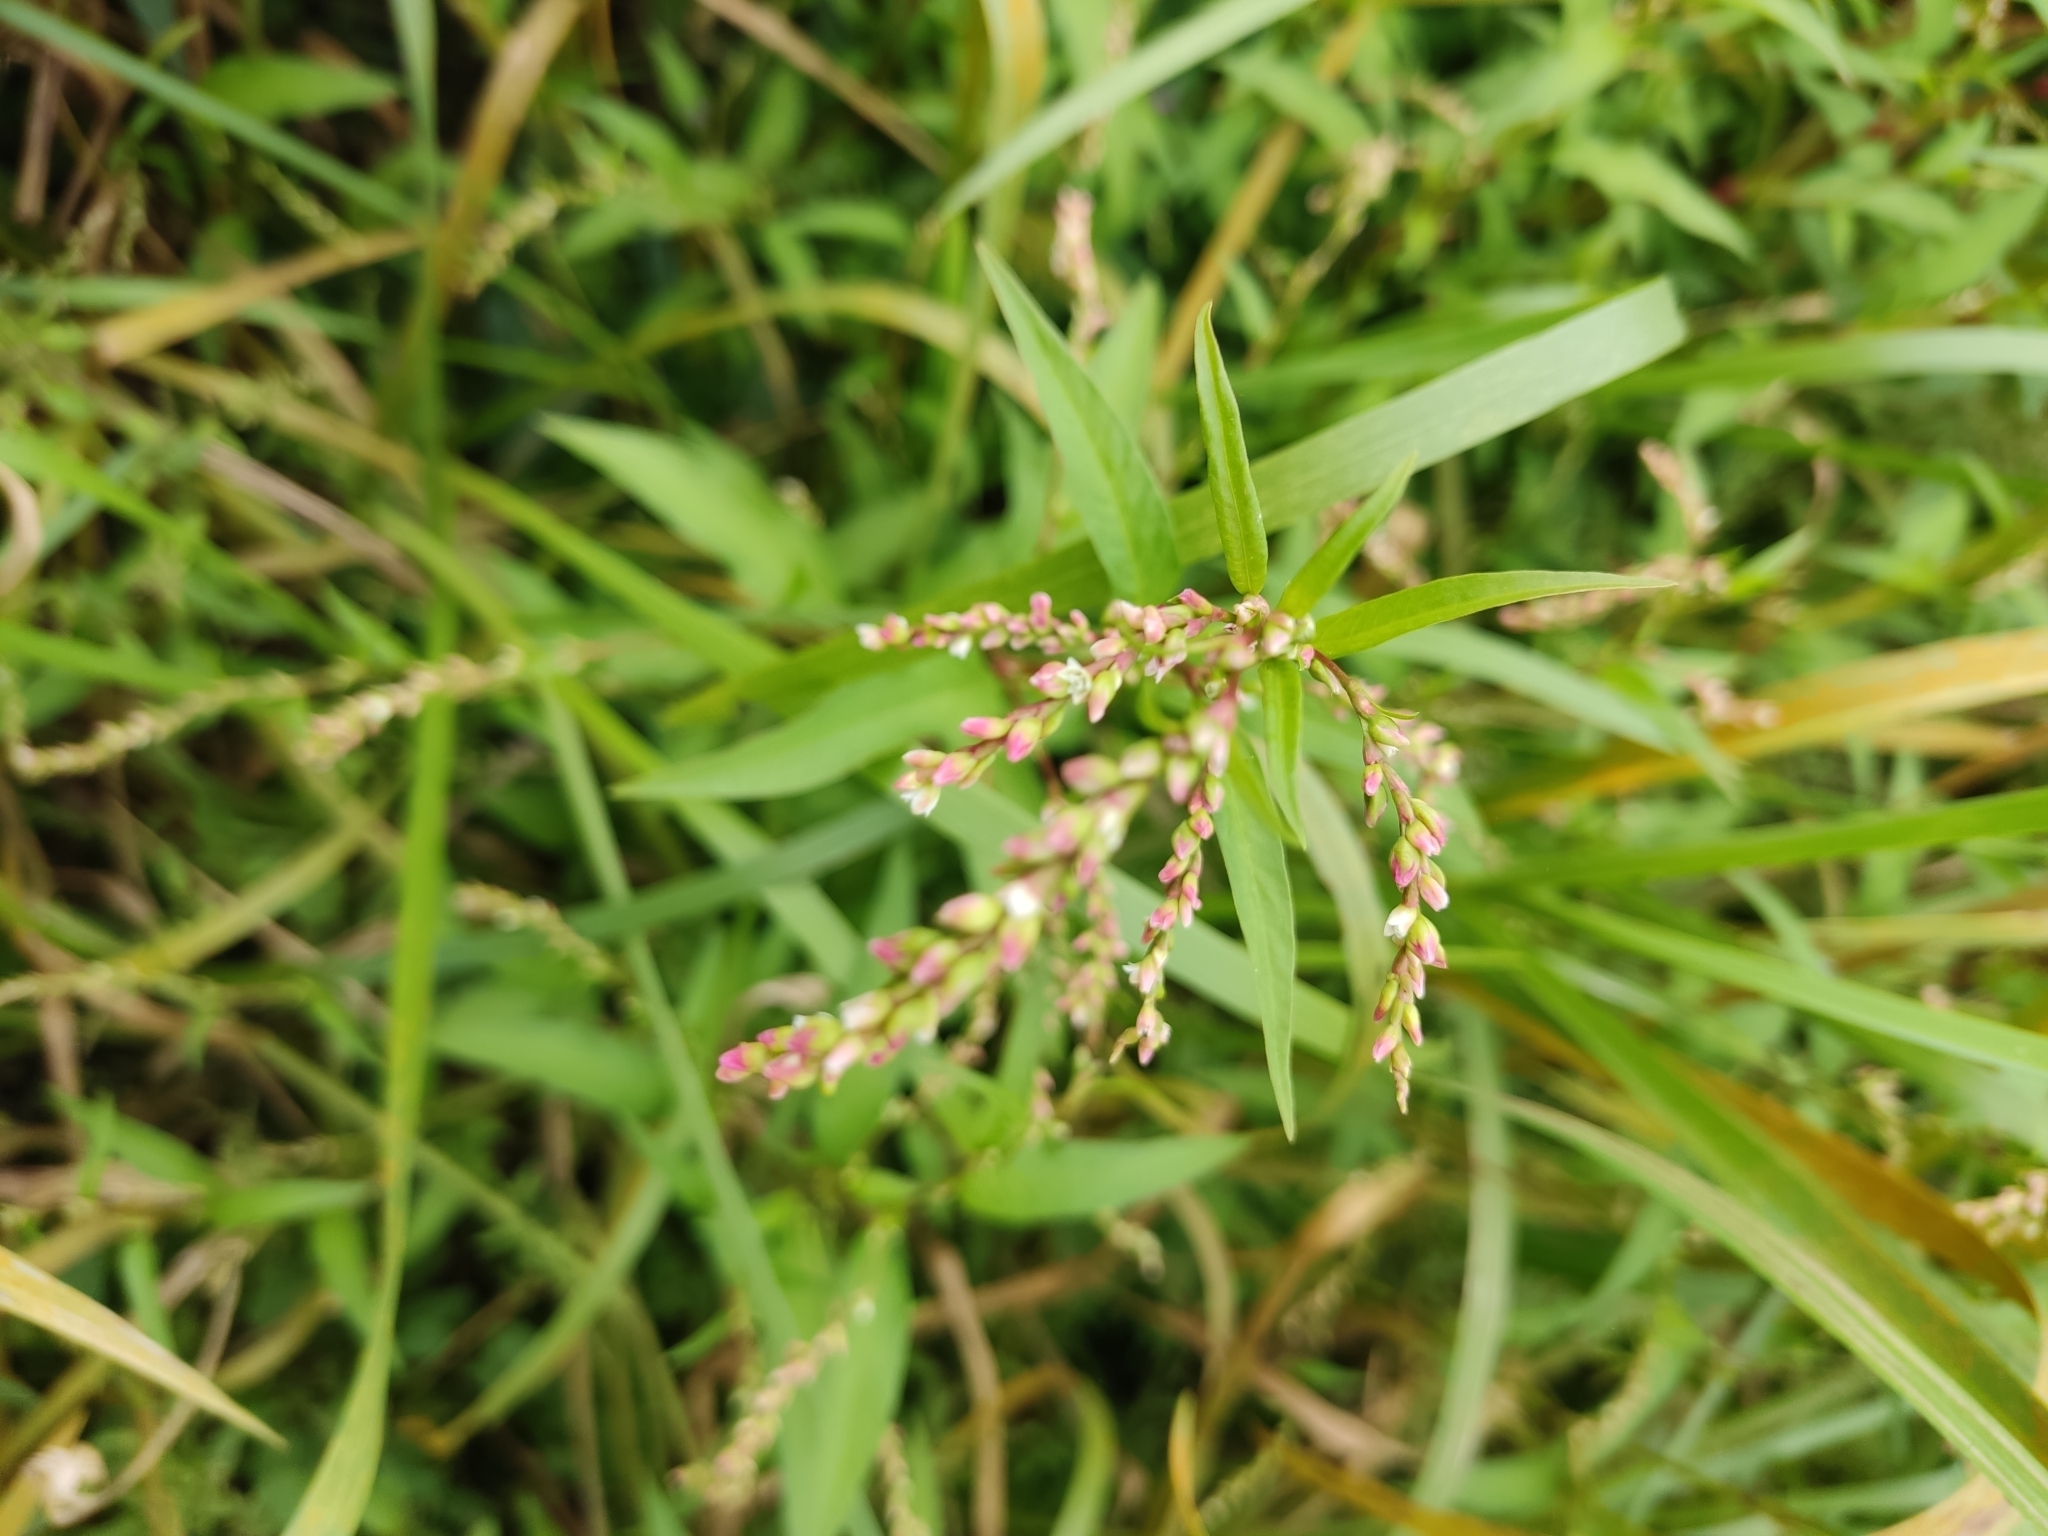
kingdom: Plantae
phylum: Tracheophyta
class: Magnoliopsida
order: Caryophyllales
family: Polygonaceae
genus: Persicaria
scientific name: Persicaria hydropiper
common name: Water-pepper
